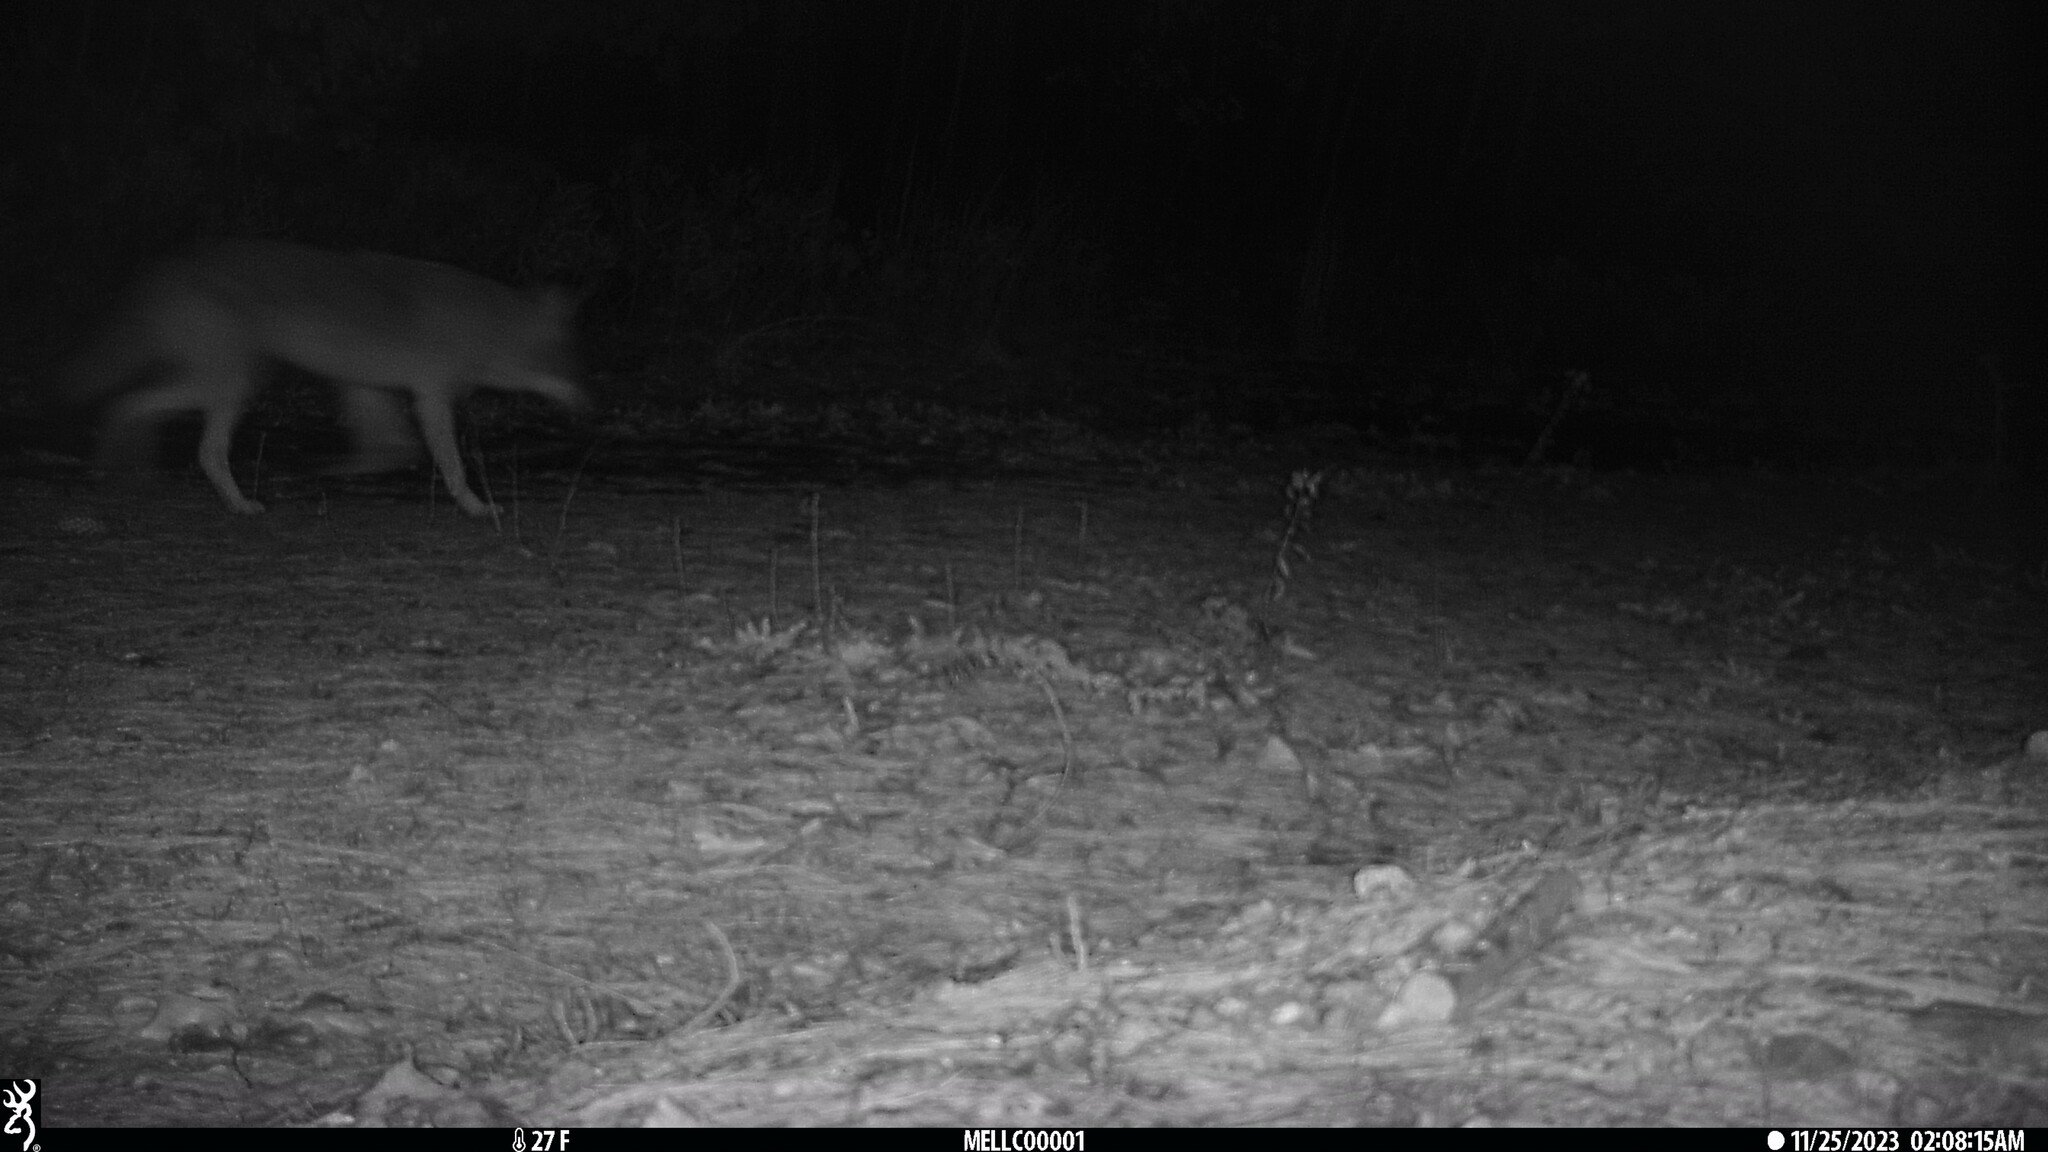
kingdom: Animalia
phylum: Chordata
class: Mammalia
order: Carnivora
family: Canidae
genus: Canis
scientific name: Canis latrans
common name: Coyote
